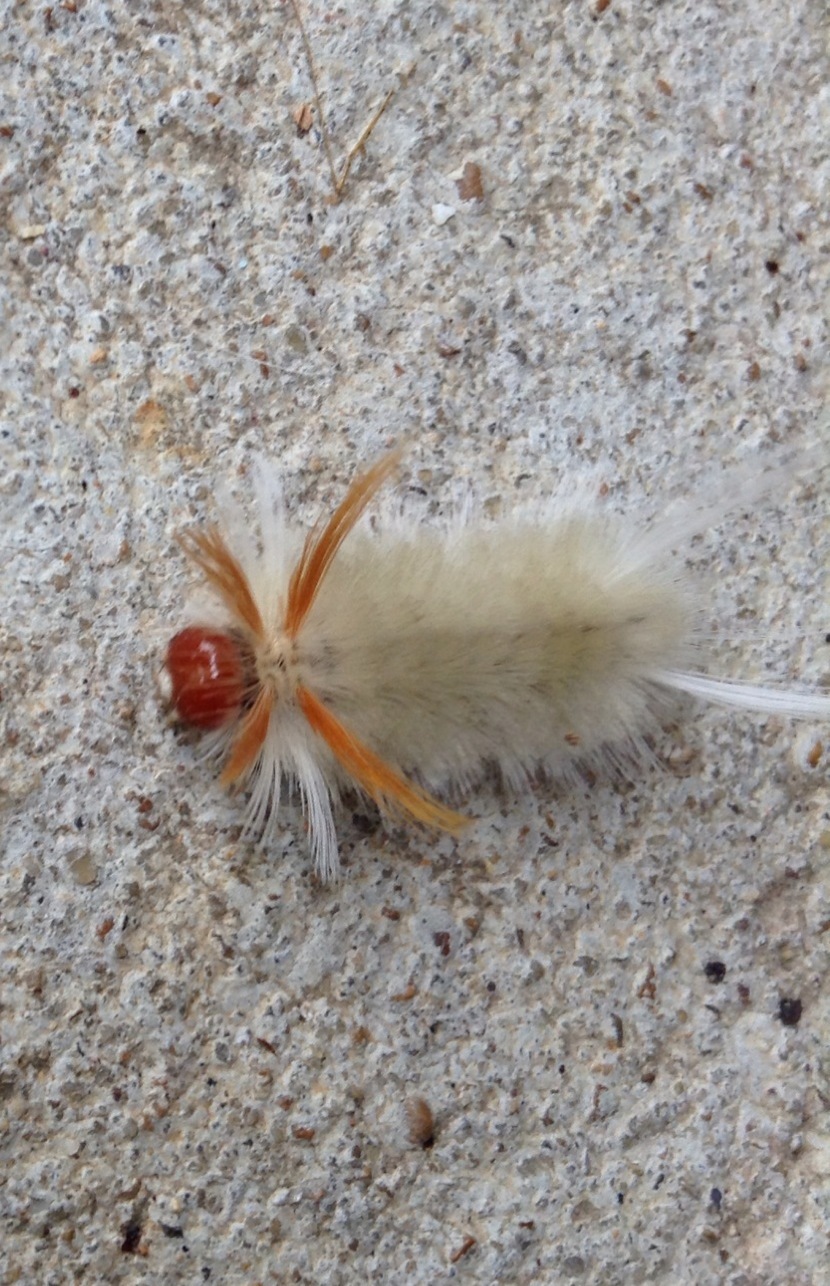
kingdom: Animalia
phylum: Arthropoda
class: Insecta
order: Lepidoptera
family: Erebidae
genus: Halysidota
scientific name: Halysidota harrisii
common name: Sycamore tussock moth
